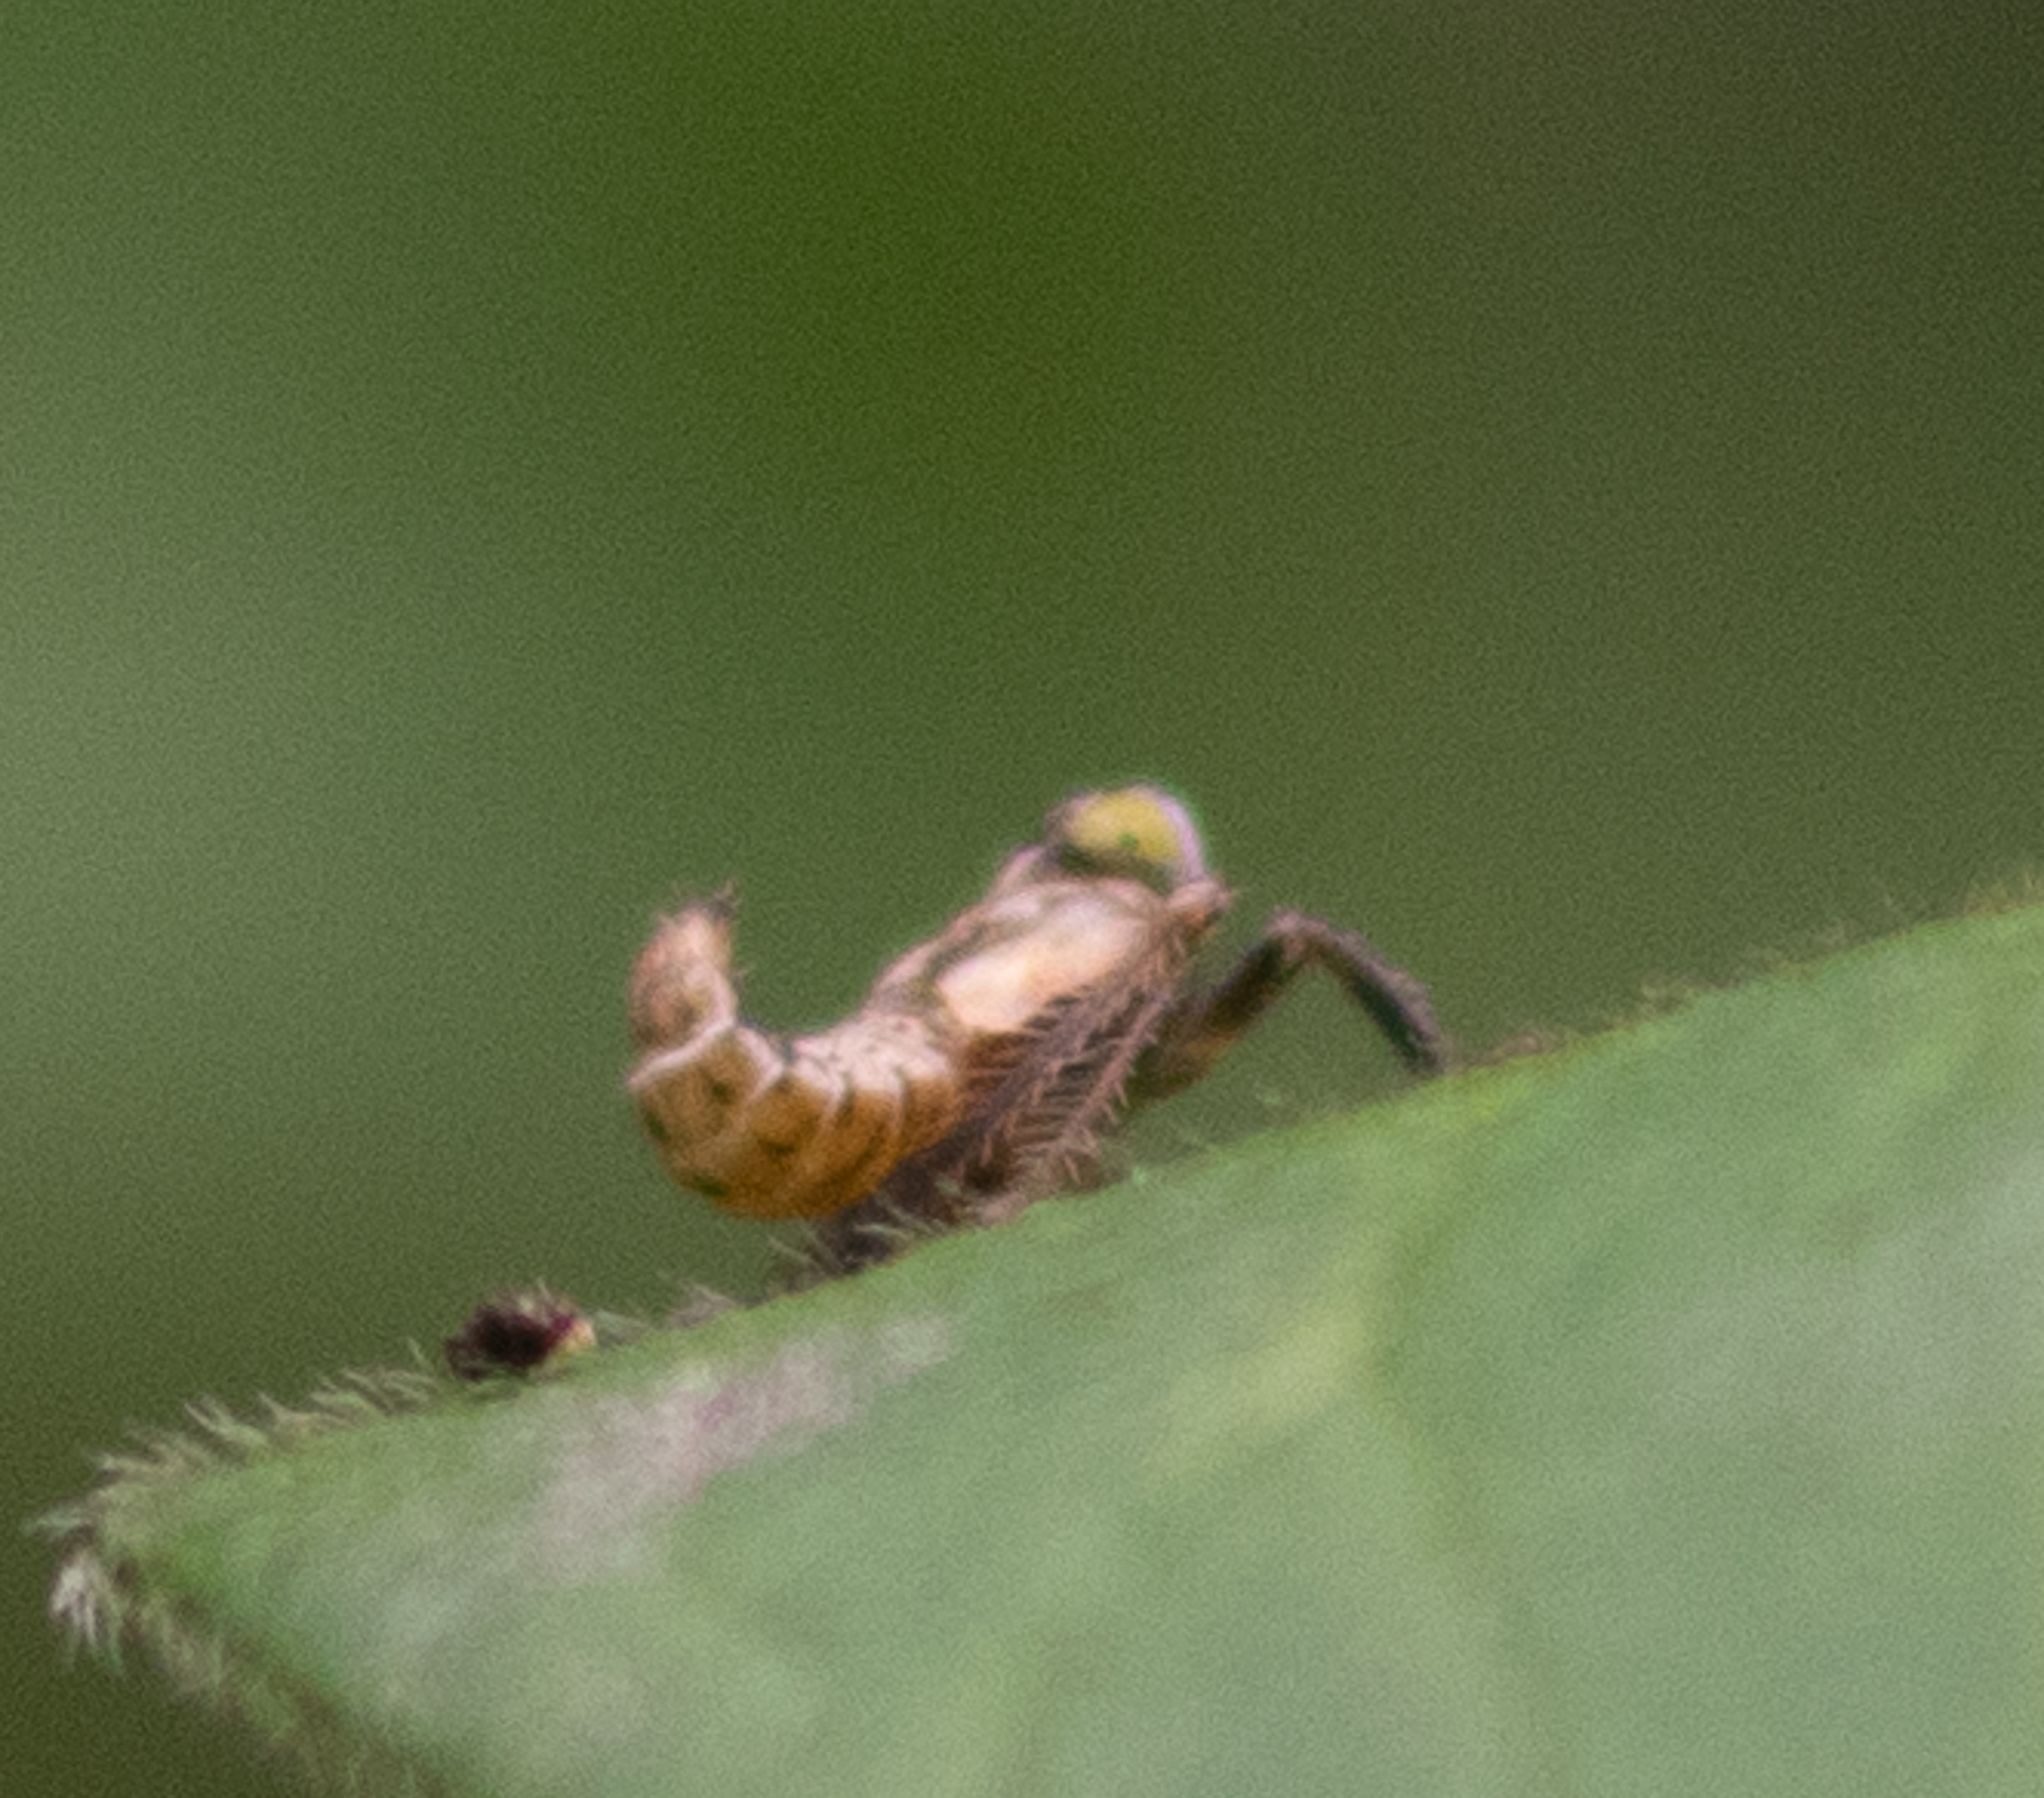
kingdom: Animalia
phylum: Arthropoda
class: Insecta
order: Hemiptera
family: Cicadellidae
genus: Jikradia
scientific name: Jikradia olitoria
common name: Coppery leafhopper
